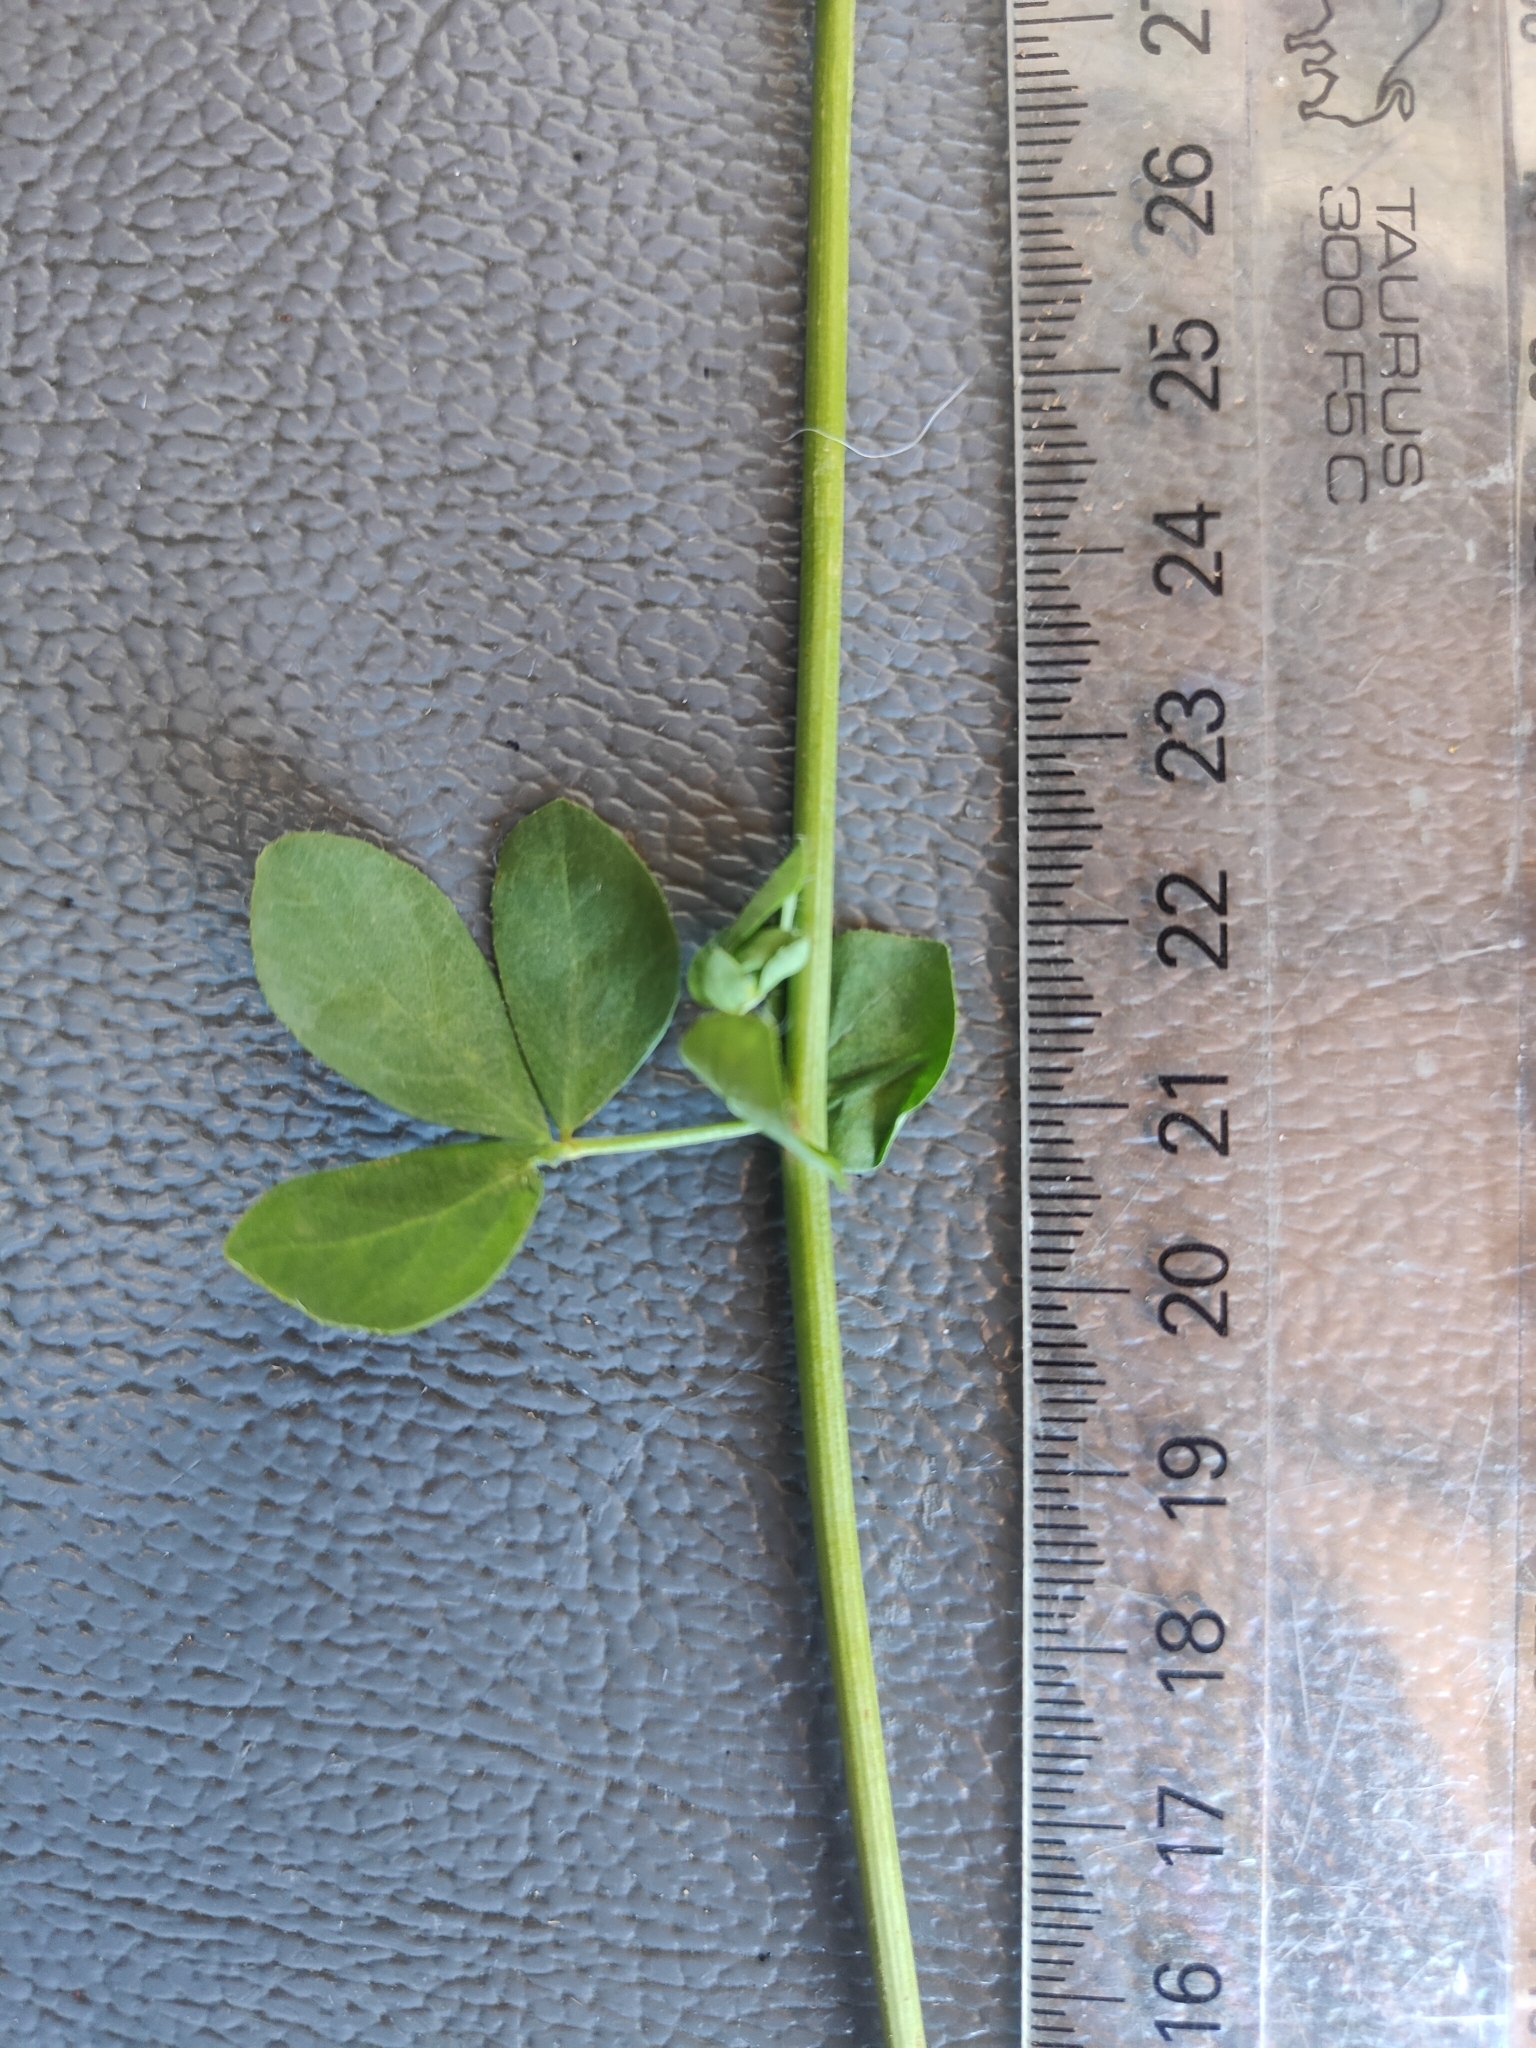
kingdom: Plantae
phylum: Tracheophyta
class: Magnoliopsida
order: Fabales
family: Fabaceae
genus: Lotus
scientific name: Lotus pedunculatus
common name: Greater birdsfoot-trefoil
